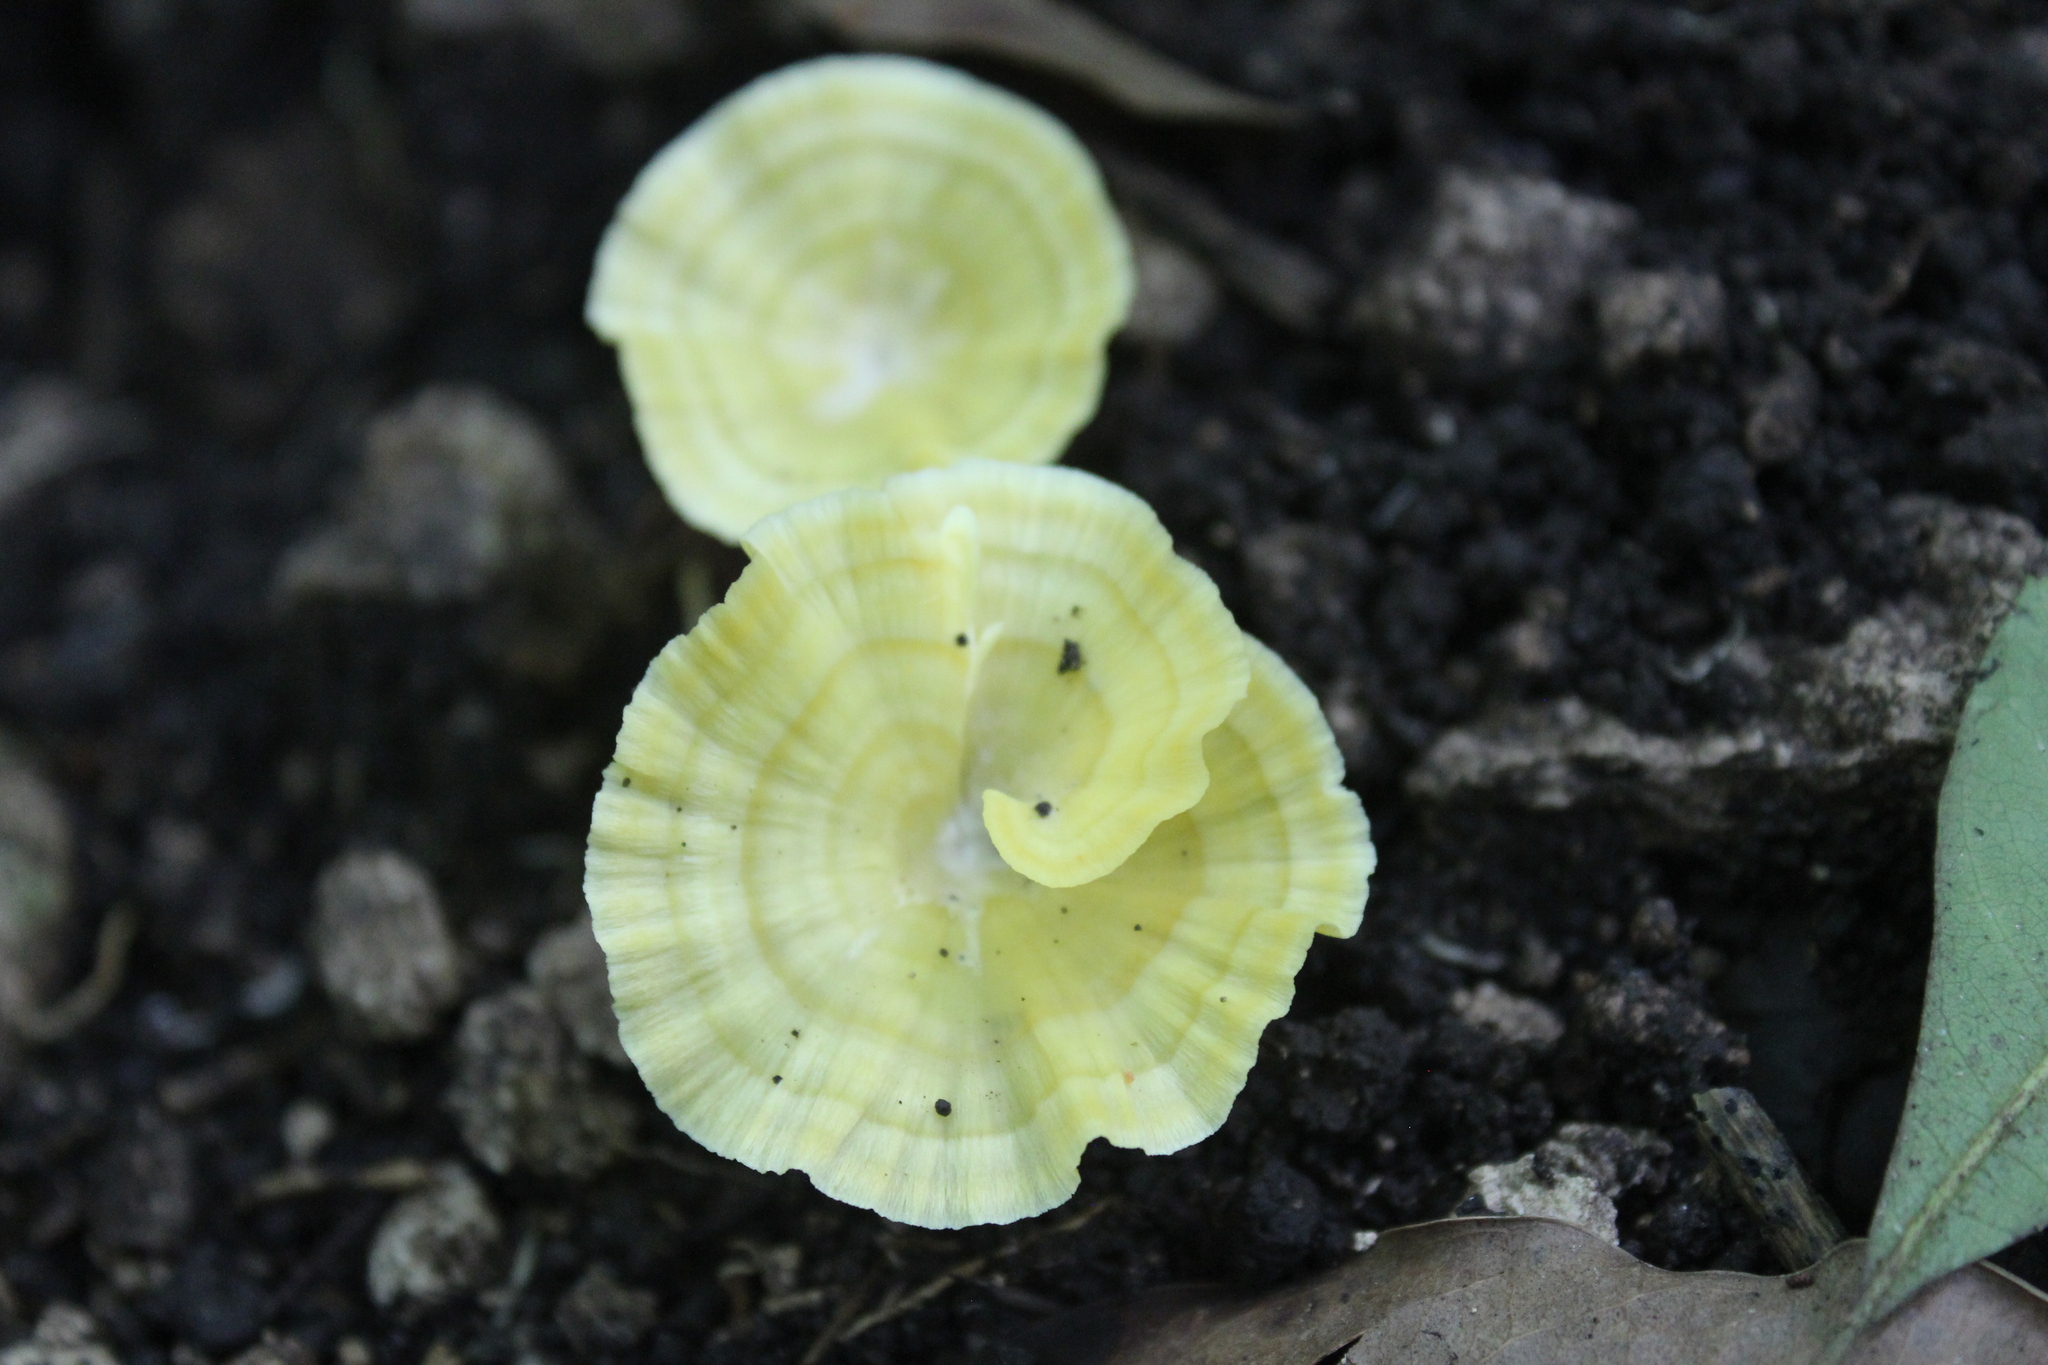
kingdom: Fungi
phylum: Basidiomycota
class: Agaricomycetes
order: Hymenochaetales
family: Rickenellaceae
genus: Cotylidia
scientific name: Cotylidia aurantiaca
